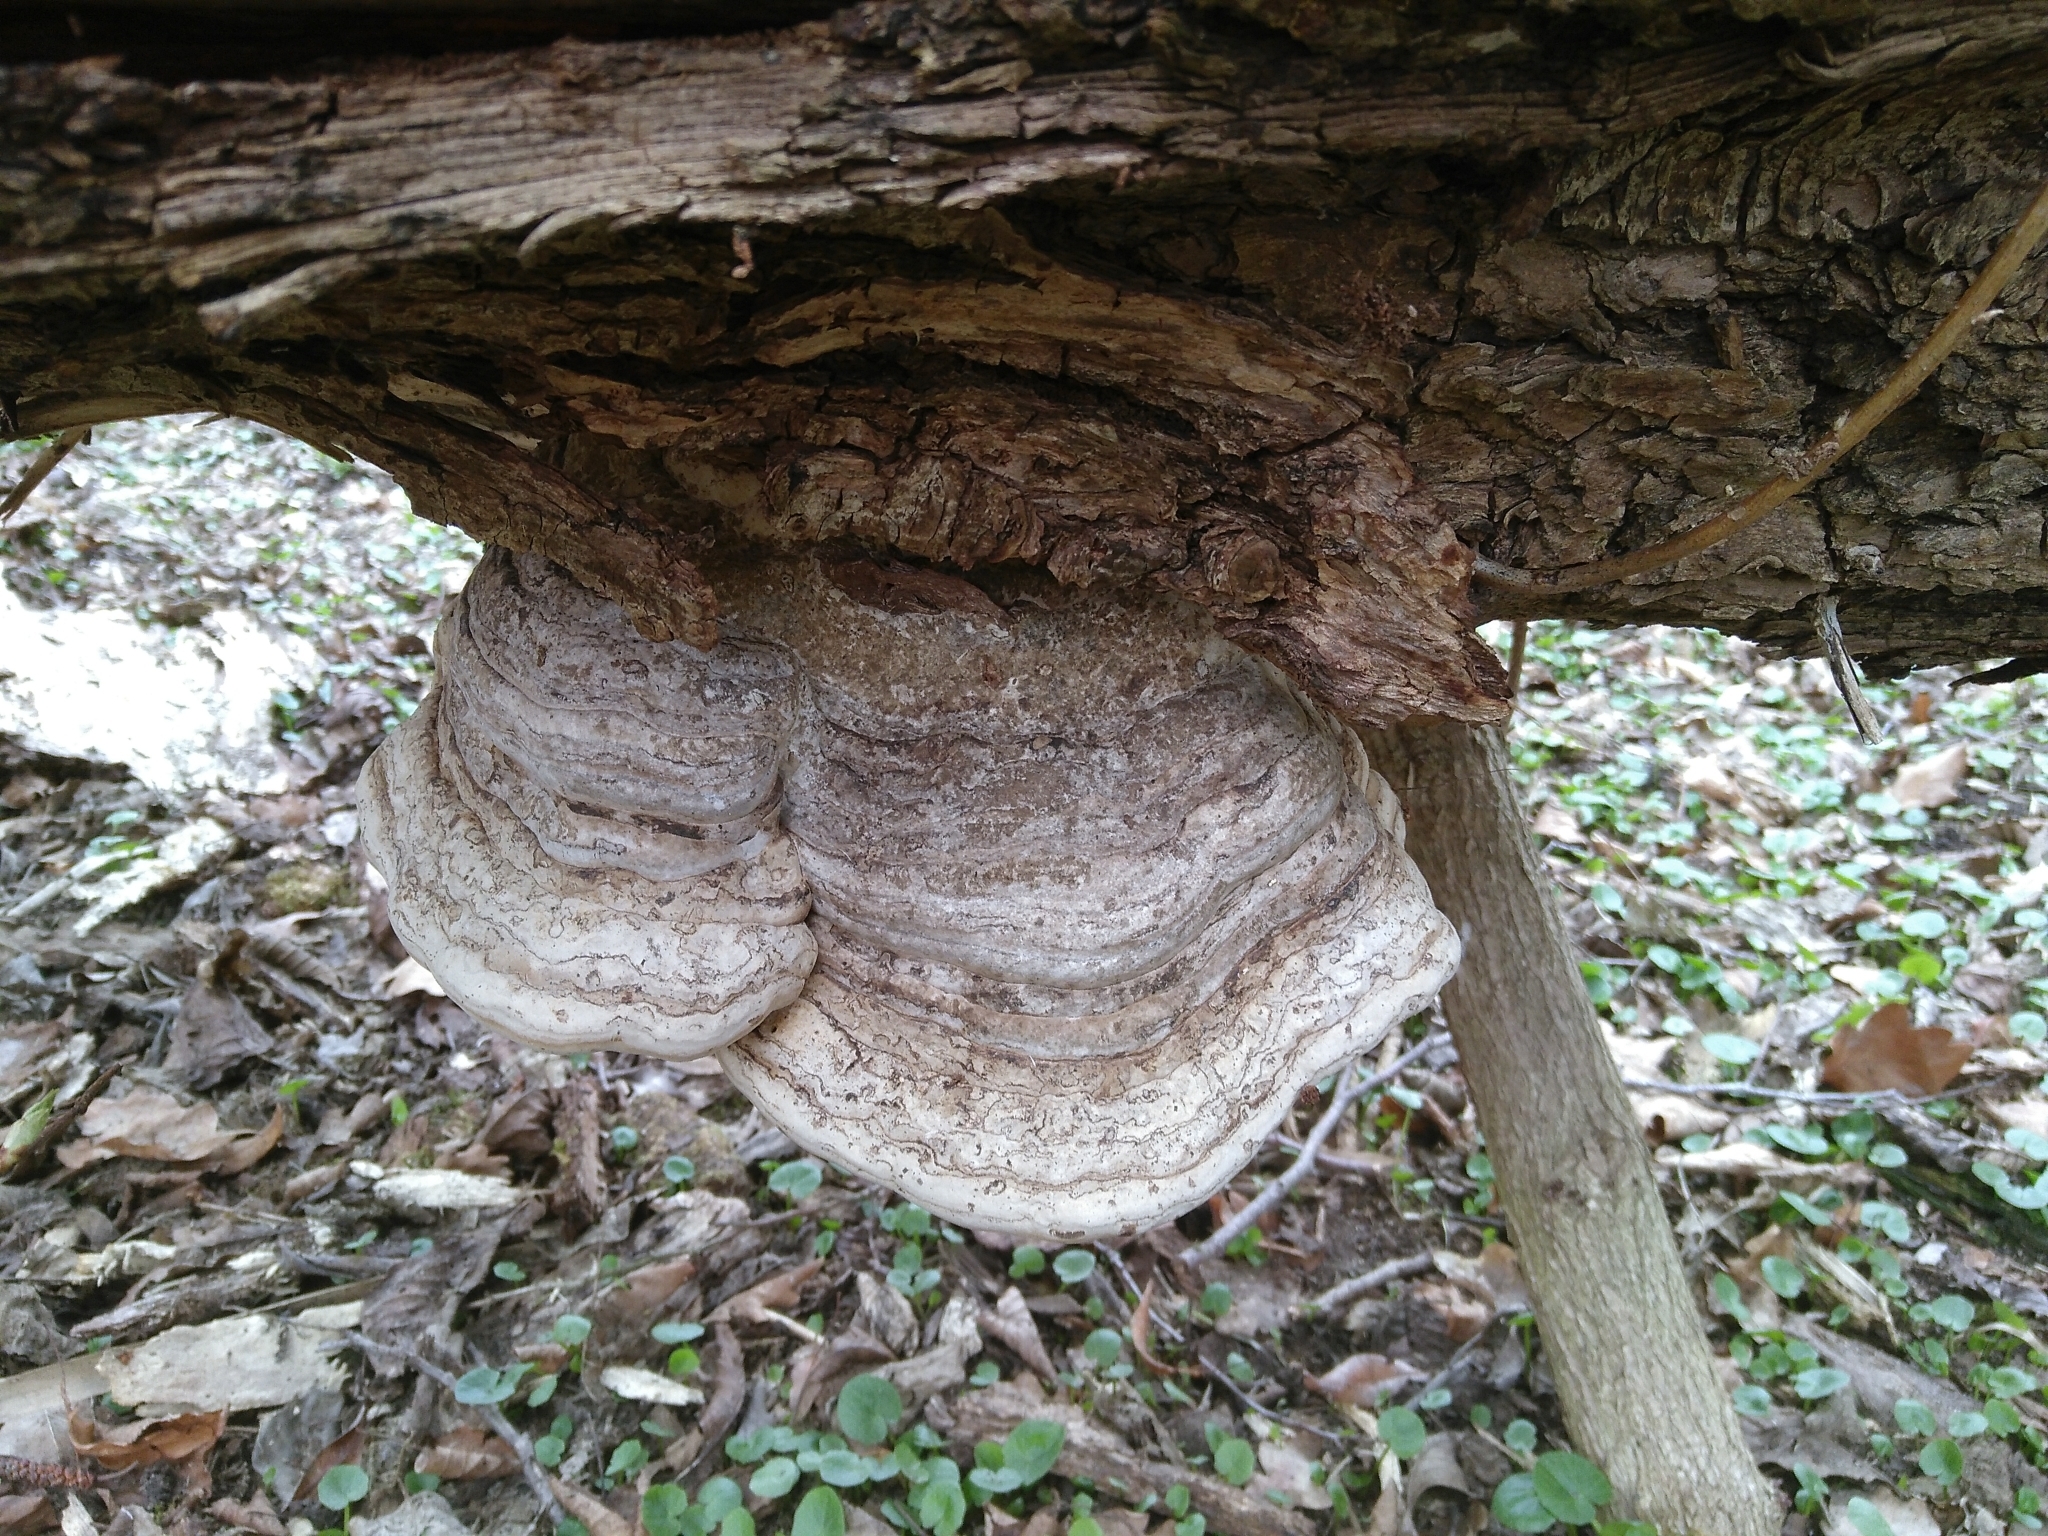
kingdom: Fungi
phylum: Basidiomycota
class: Agaricomycetes
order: Polyporales
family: Polyporaceae
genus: Fomes
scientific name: Fomes fomentarius
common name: Hoof fungus
